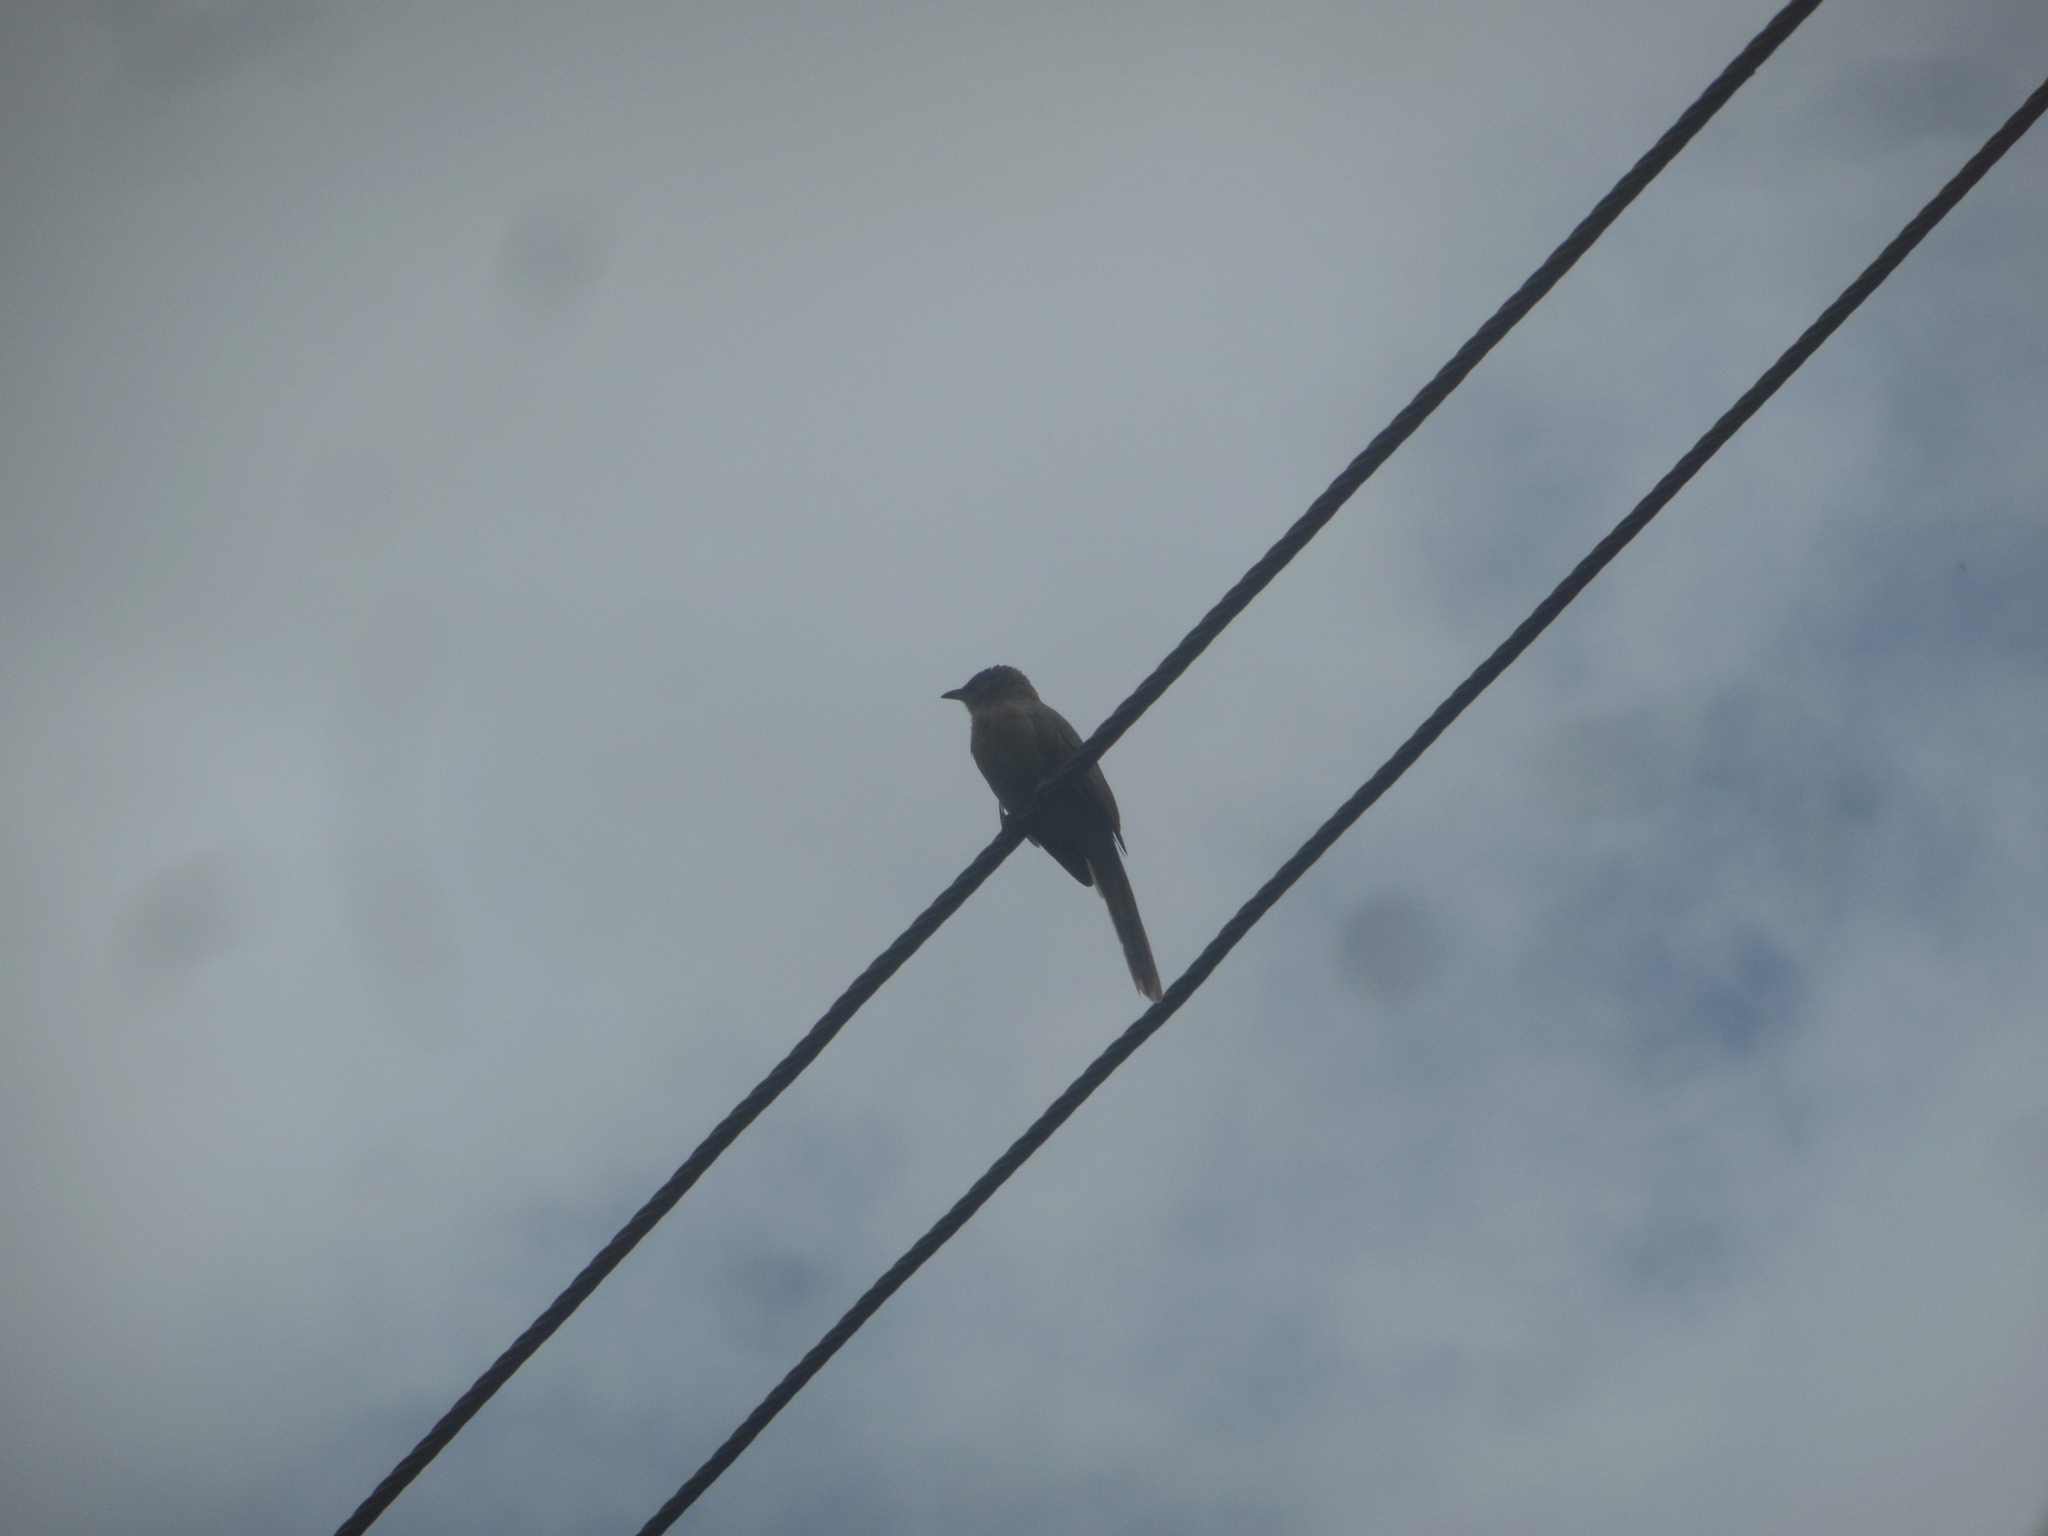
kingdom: Animalia
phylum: Chordata
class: Aves
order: Passeriformes
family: Leiothrichidae
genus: Turdoides
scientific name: Turdoides malcolmi
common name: Large grey babbler
